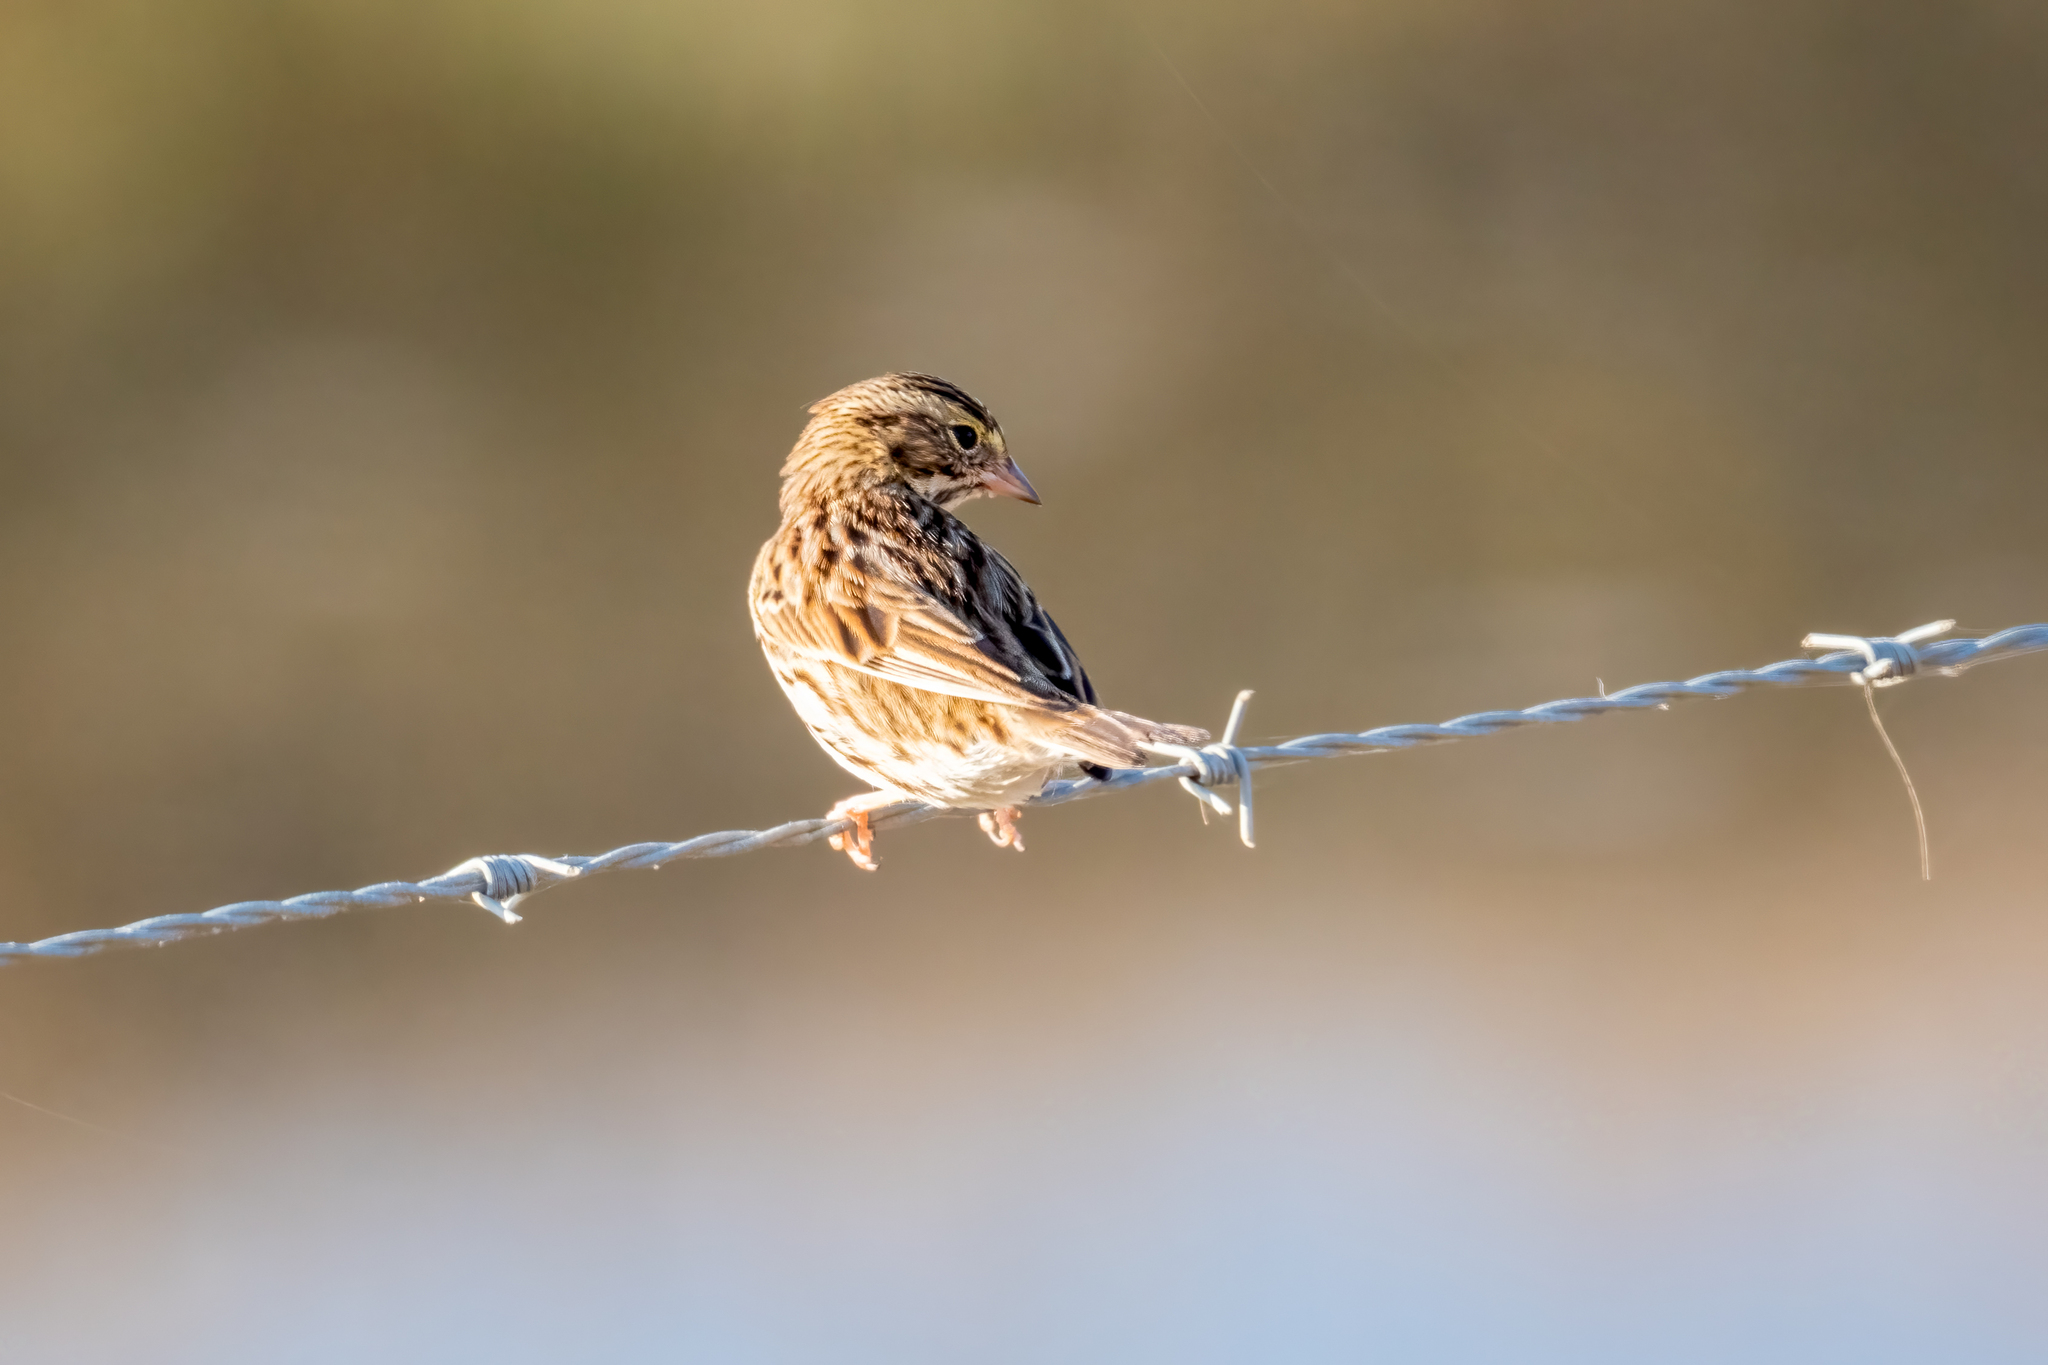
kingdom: Animalia
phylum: Chordata
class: Aves
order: Passeriformes
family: Passerellidae
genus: Passerculus
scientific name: Passerculus sandwichensis
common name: Savannah sparrow
